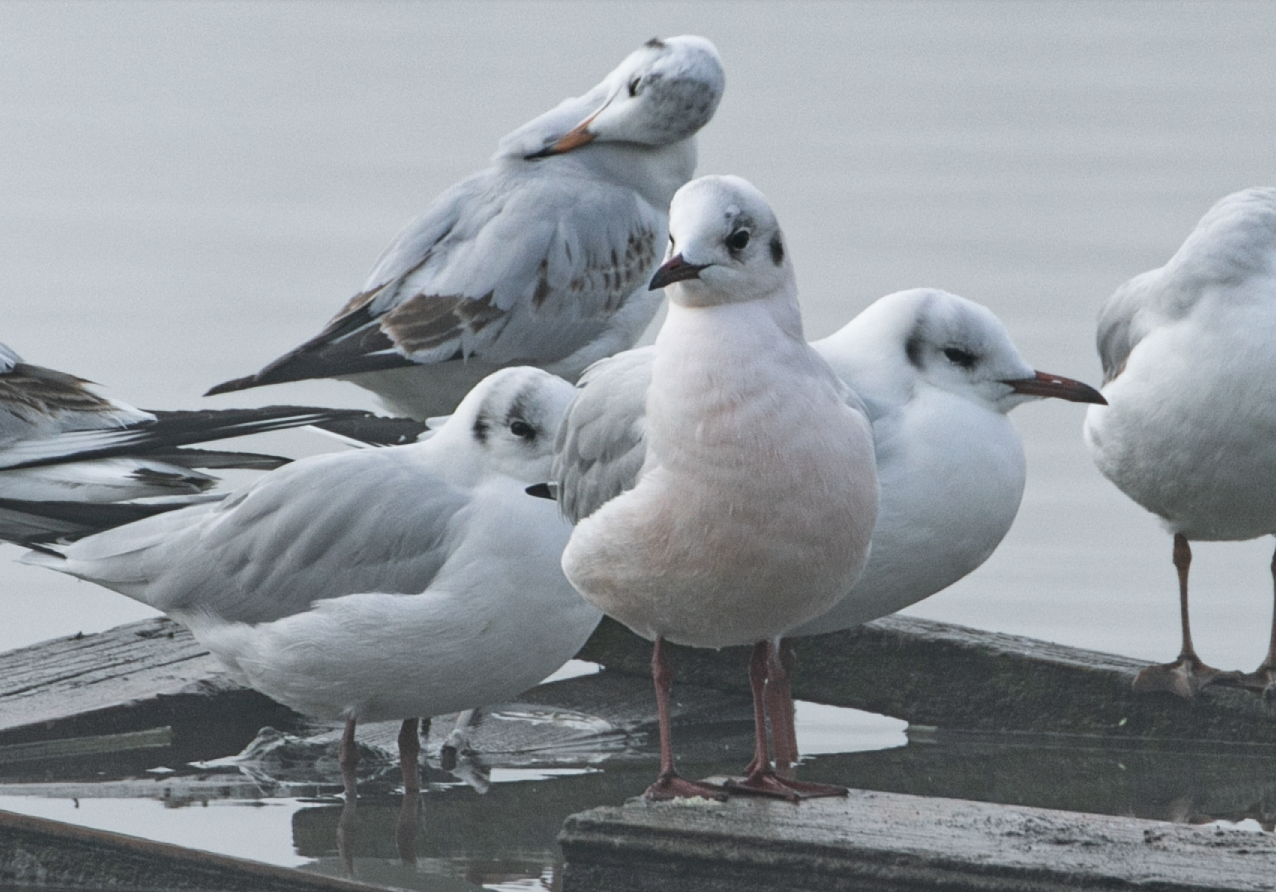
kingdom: Animalia
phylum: Chordata
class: Aves
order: Charadriiformes
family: Laridae
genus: Chroicocephalus
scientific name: Chroicocephalus ridibundus
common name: Black-headed gull
